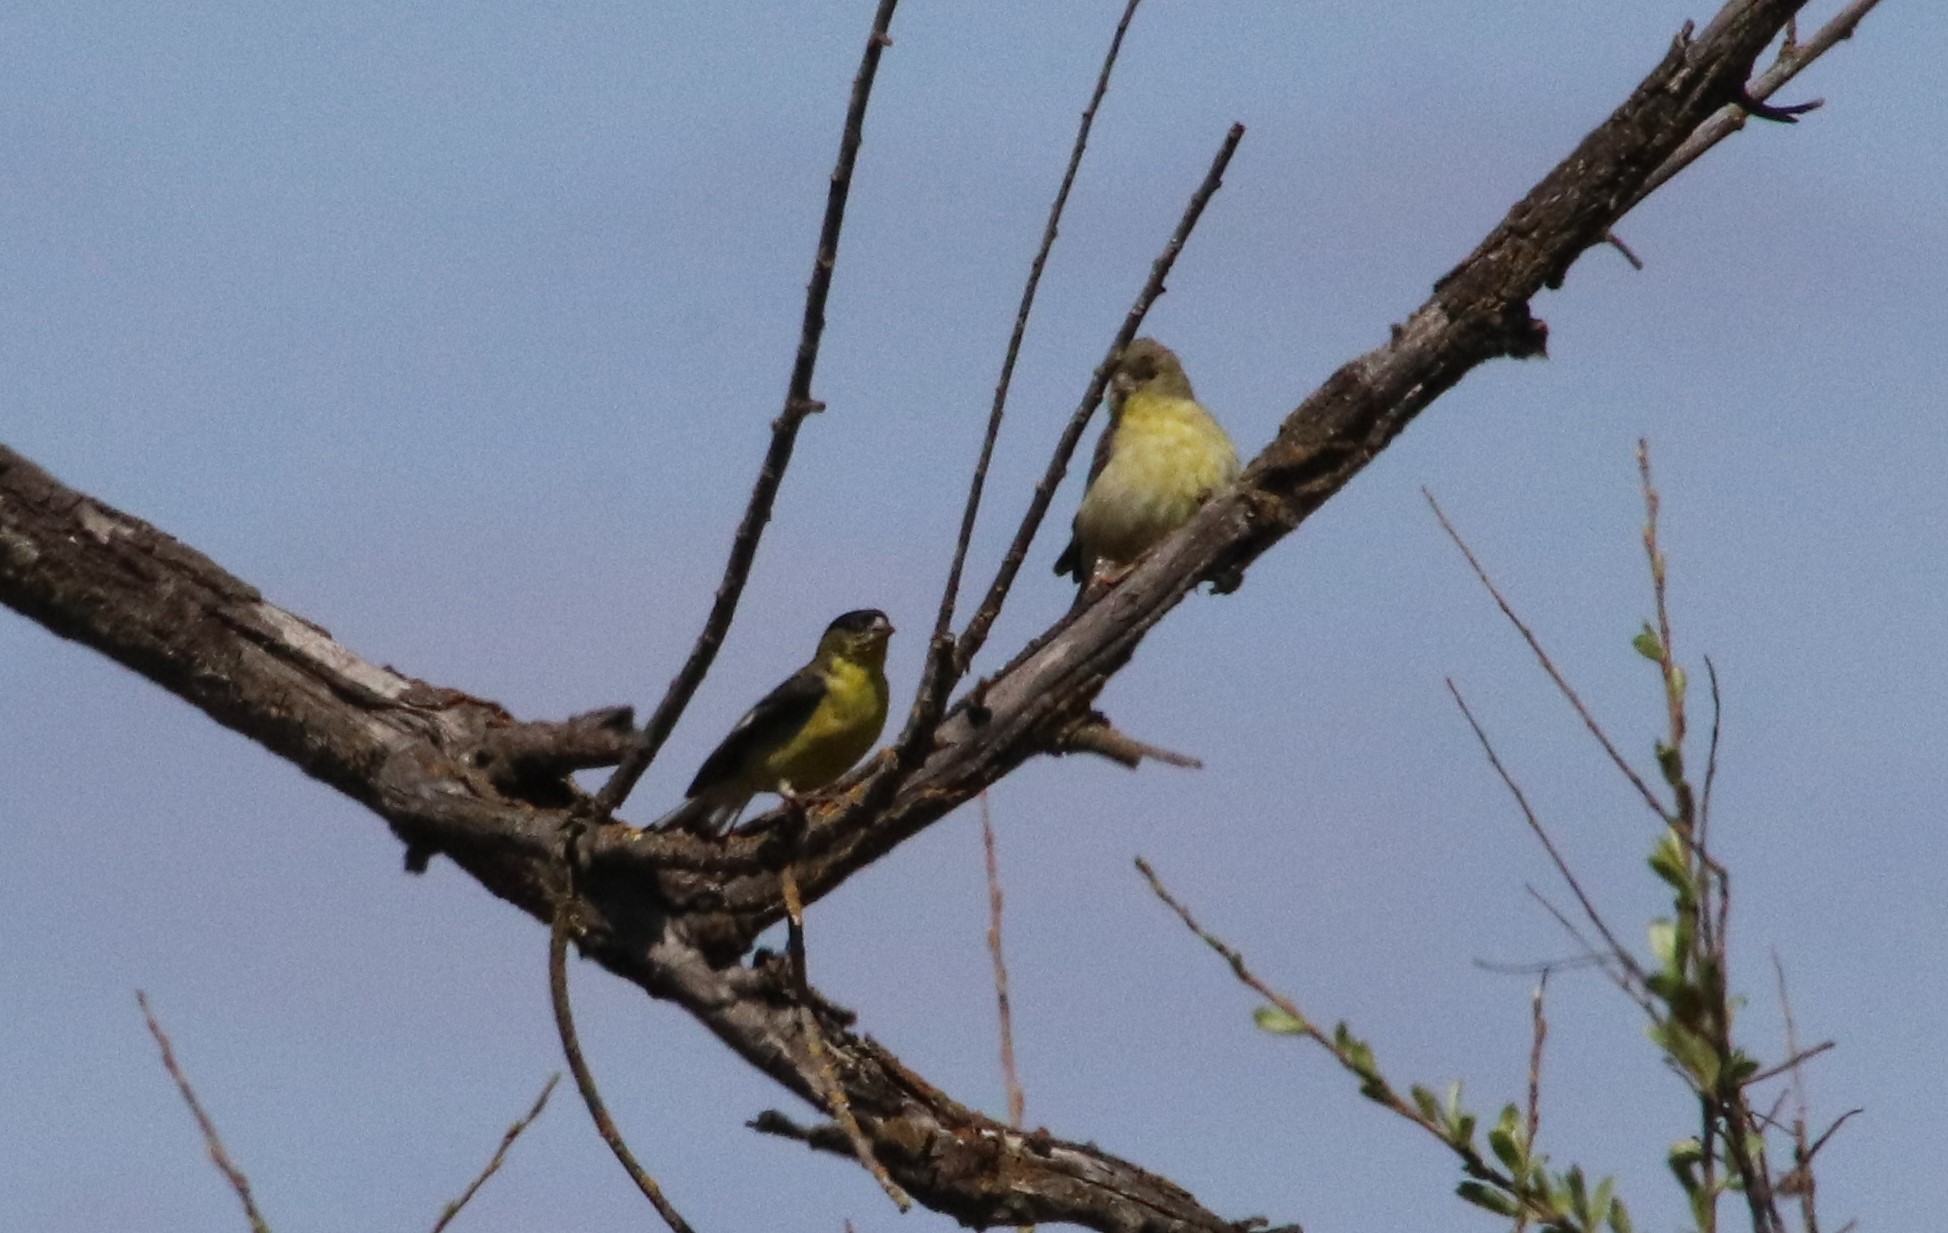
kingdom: Animalia
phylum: Chordata
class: Aves
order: Passeriformes
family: Fringillidae
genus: Spinus
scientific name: Spinus psaltria
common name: Lesser goldfinch
